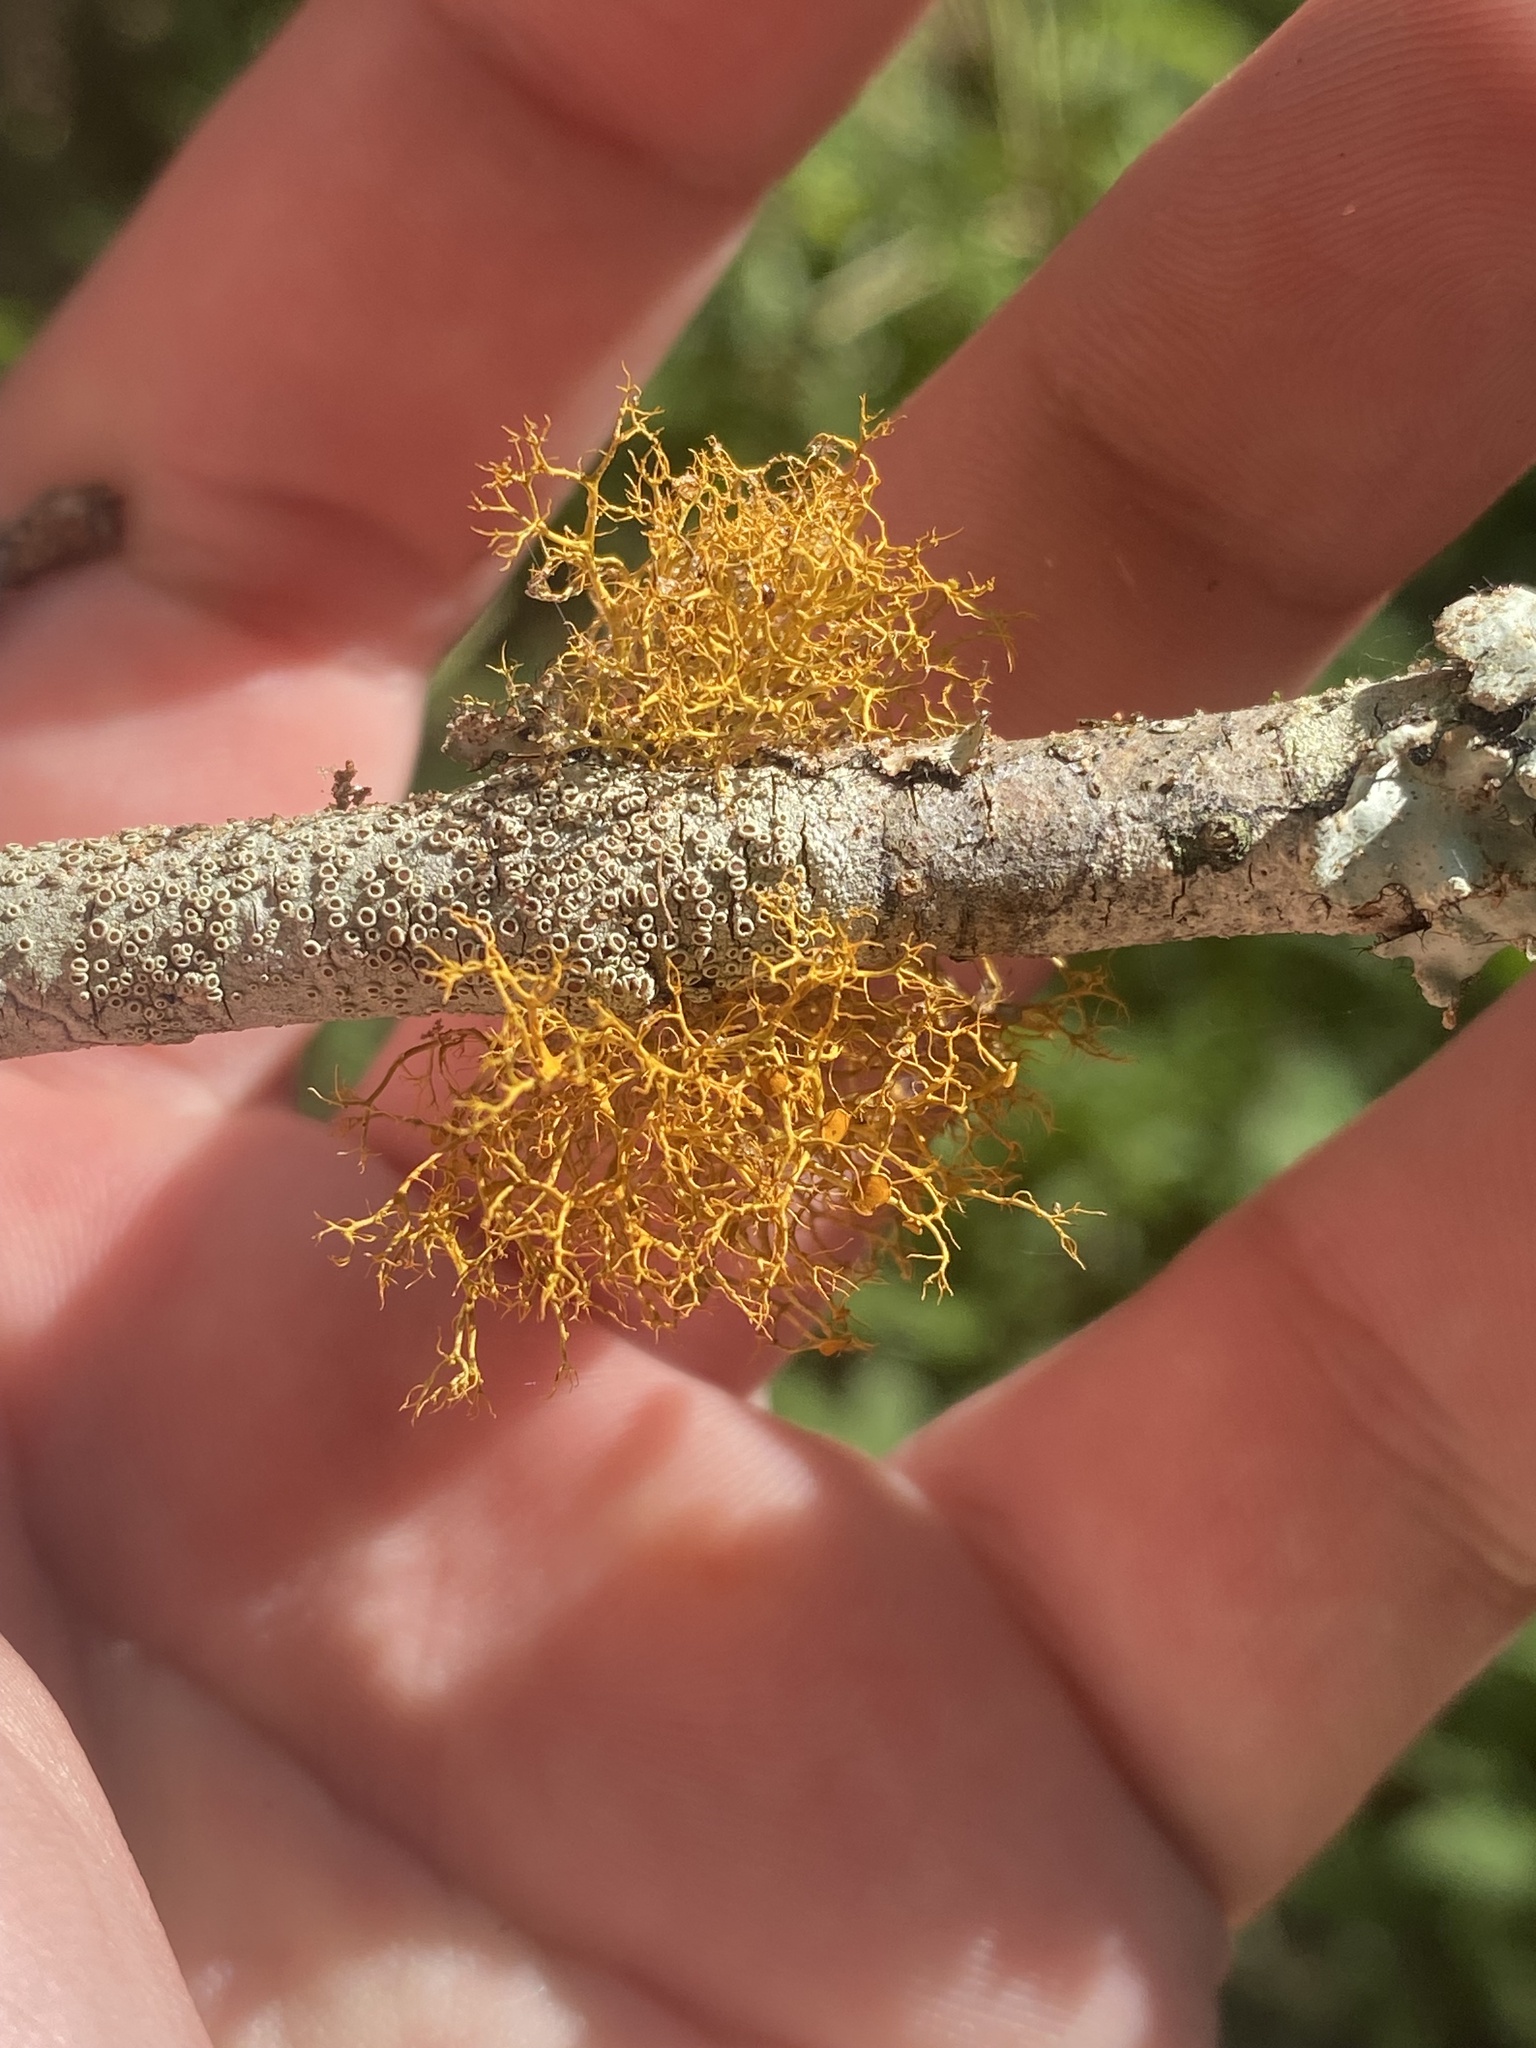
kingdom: Fungi
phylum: Ascomycota
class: Lecanoromycetes
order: Teloschistales
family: Teloschistaceae
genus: Teloschistes
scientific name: Teloschistes exilis
